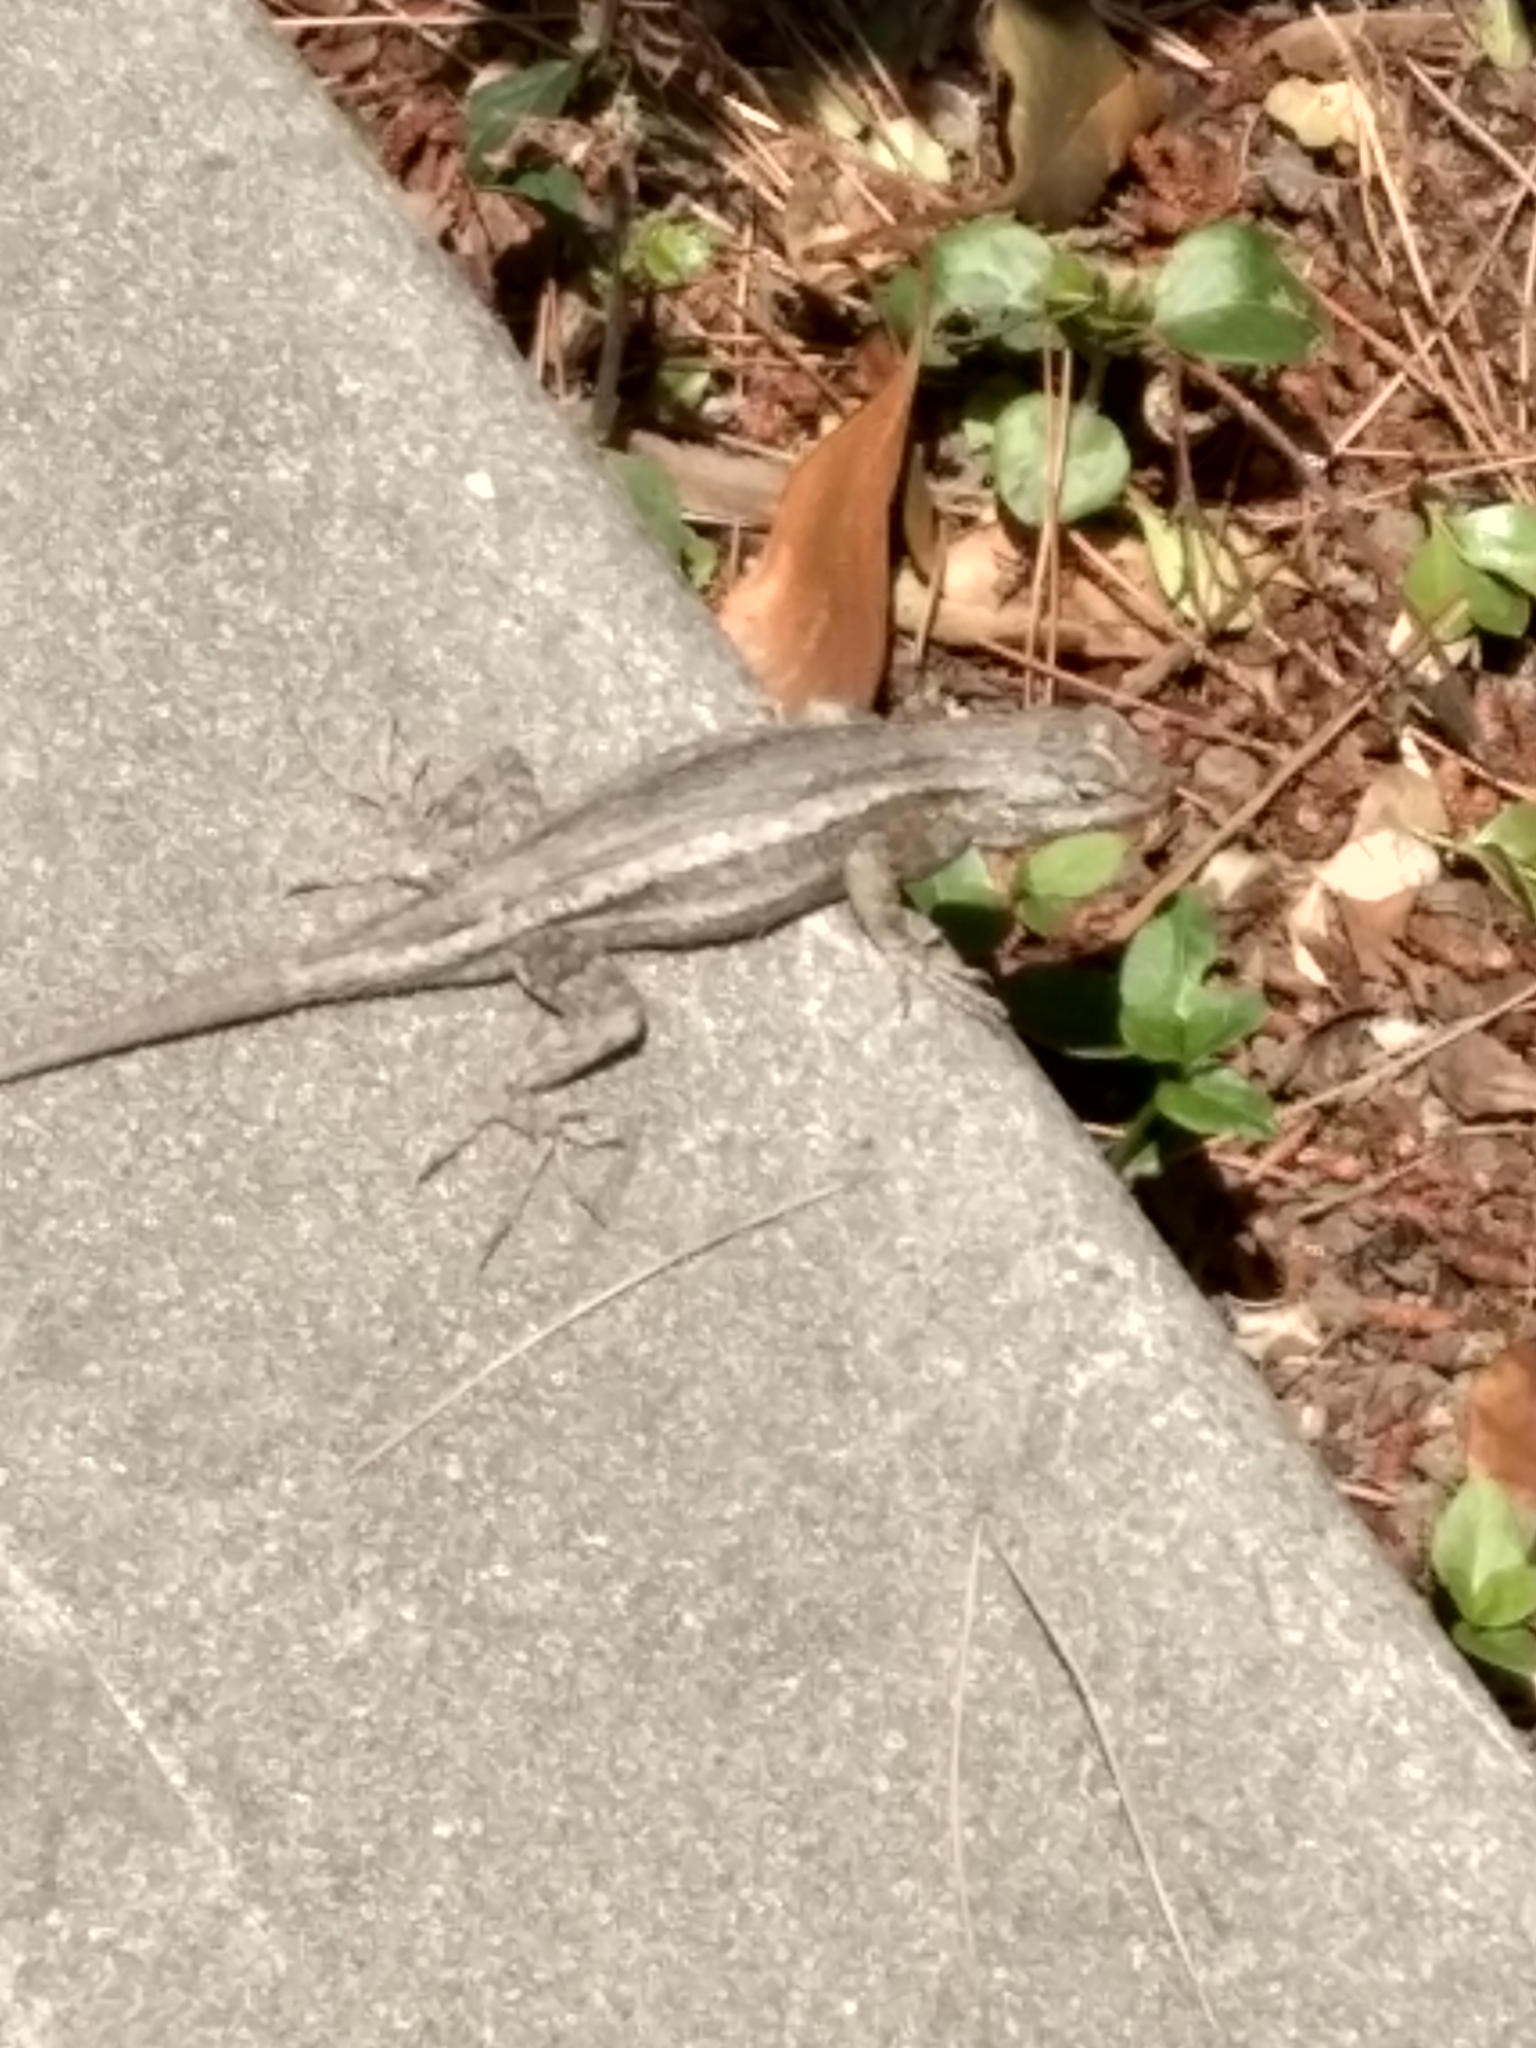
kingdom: Animalia
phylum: Chordata
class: Squamata
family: Phrynosomatidae
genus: Sceloporus
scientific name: Sceloporus occidentalis
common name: Western fence lizard
